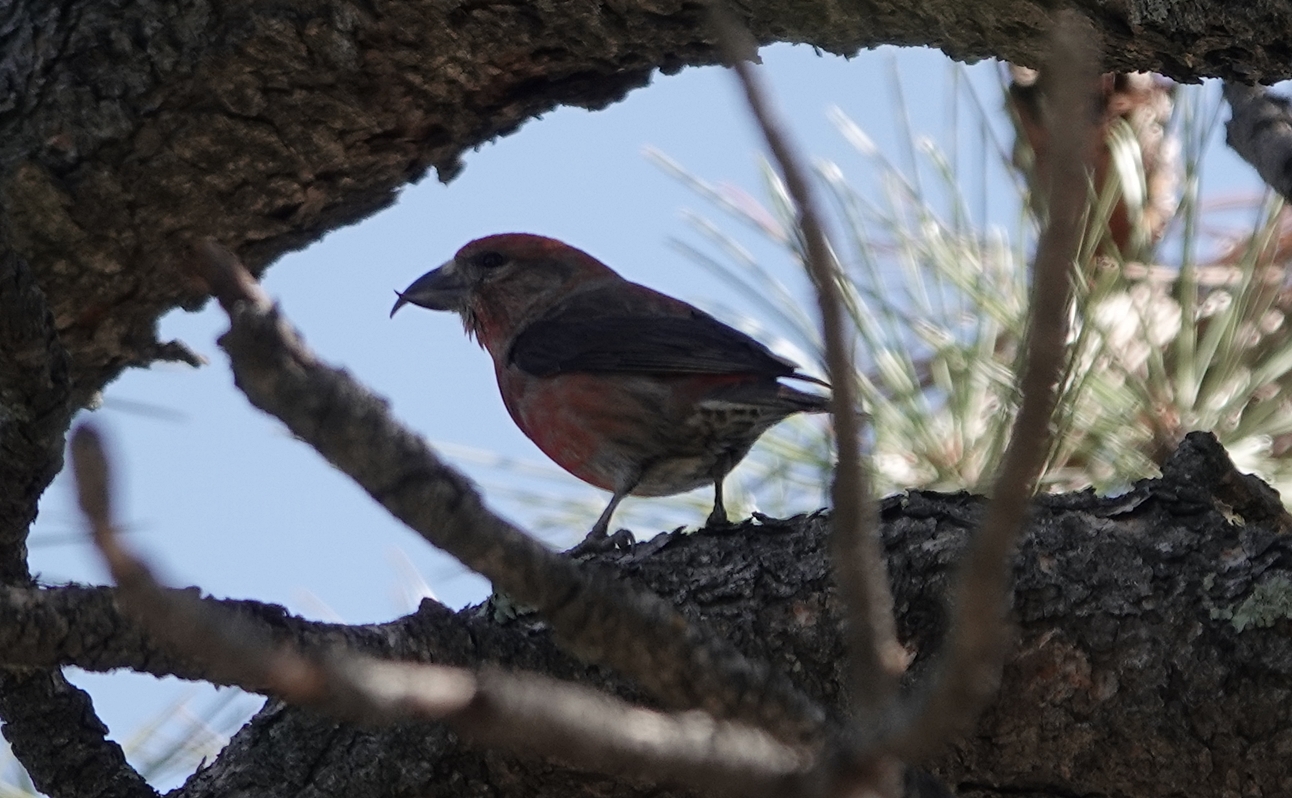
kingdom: Animalia
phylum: Chordata
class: Aves
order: Passeriformes
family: Fringillidae
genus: Loxia
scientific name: Loxia curvirostra
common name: Red crossbill
